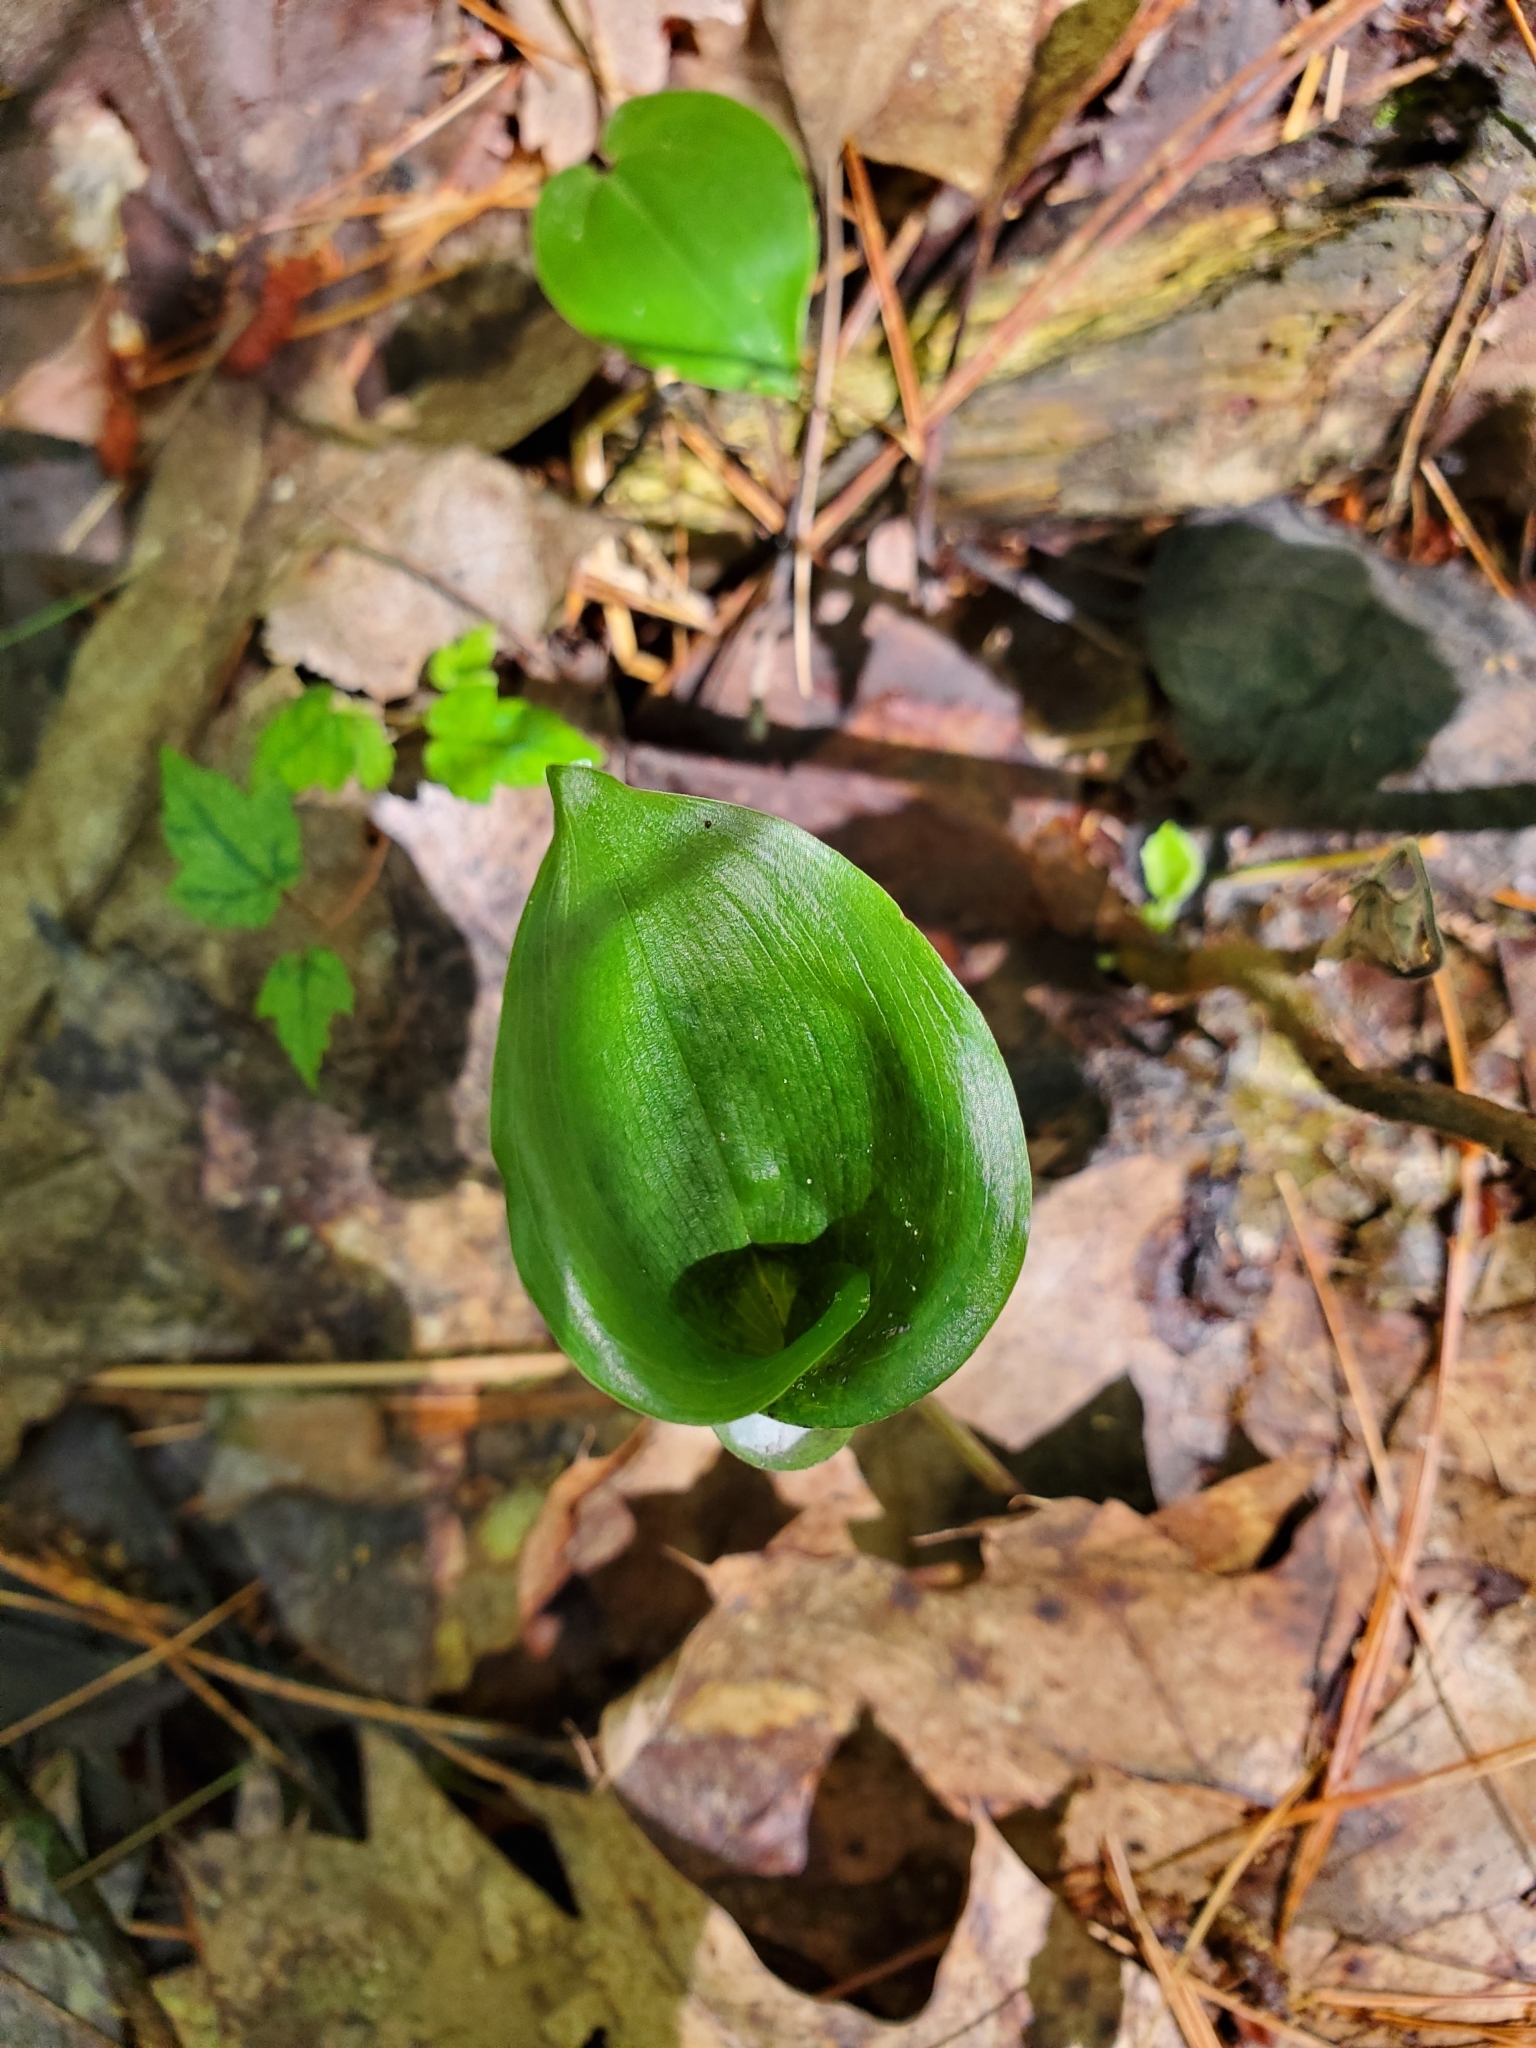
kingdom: Plantae
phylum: Tracheophyta
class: Liliopsida
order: Asparagales
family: Asparagaceae
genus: Maianthemum
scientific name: Maianthemum canadense
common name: False lily-of-the-valley
